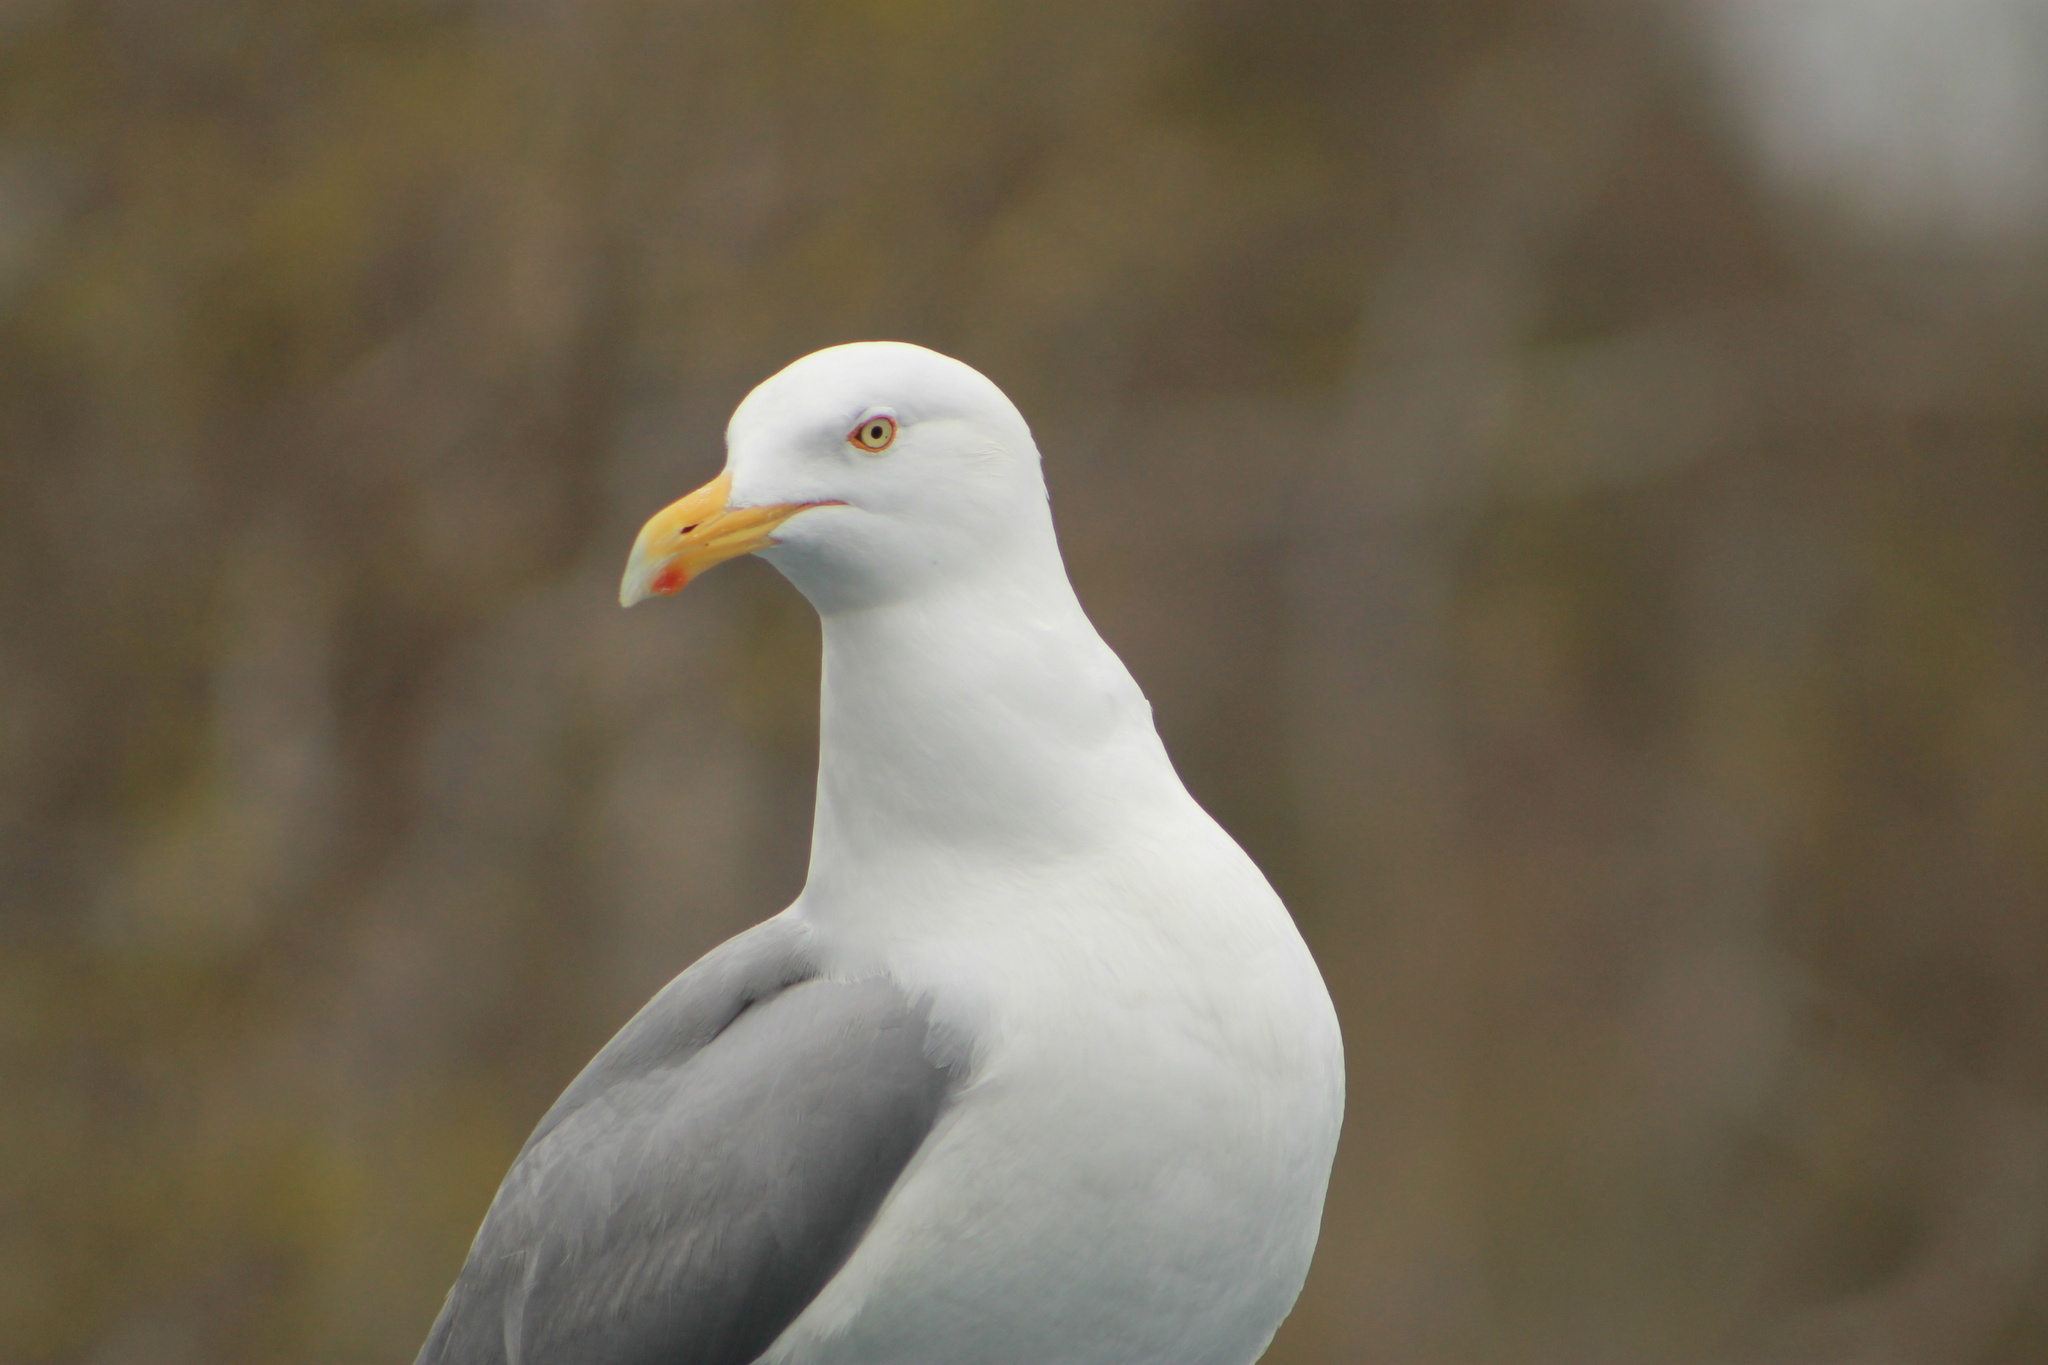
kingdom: Animalia
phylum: Chordata
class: Aves
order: Charadriiformes
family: Laridae
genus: Larus
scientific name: Larus argentatus
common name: Herring gull
